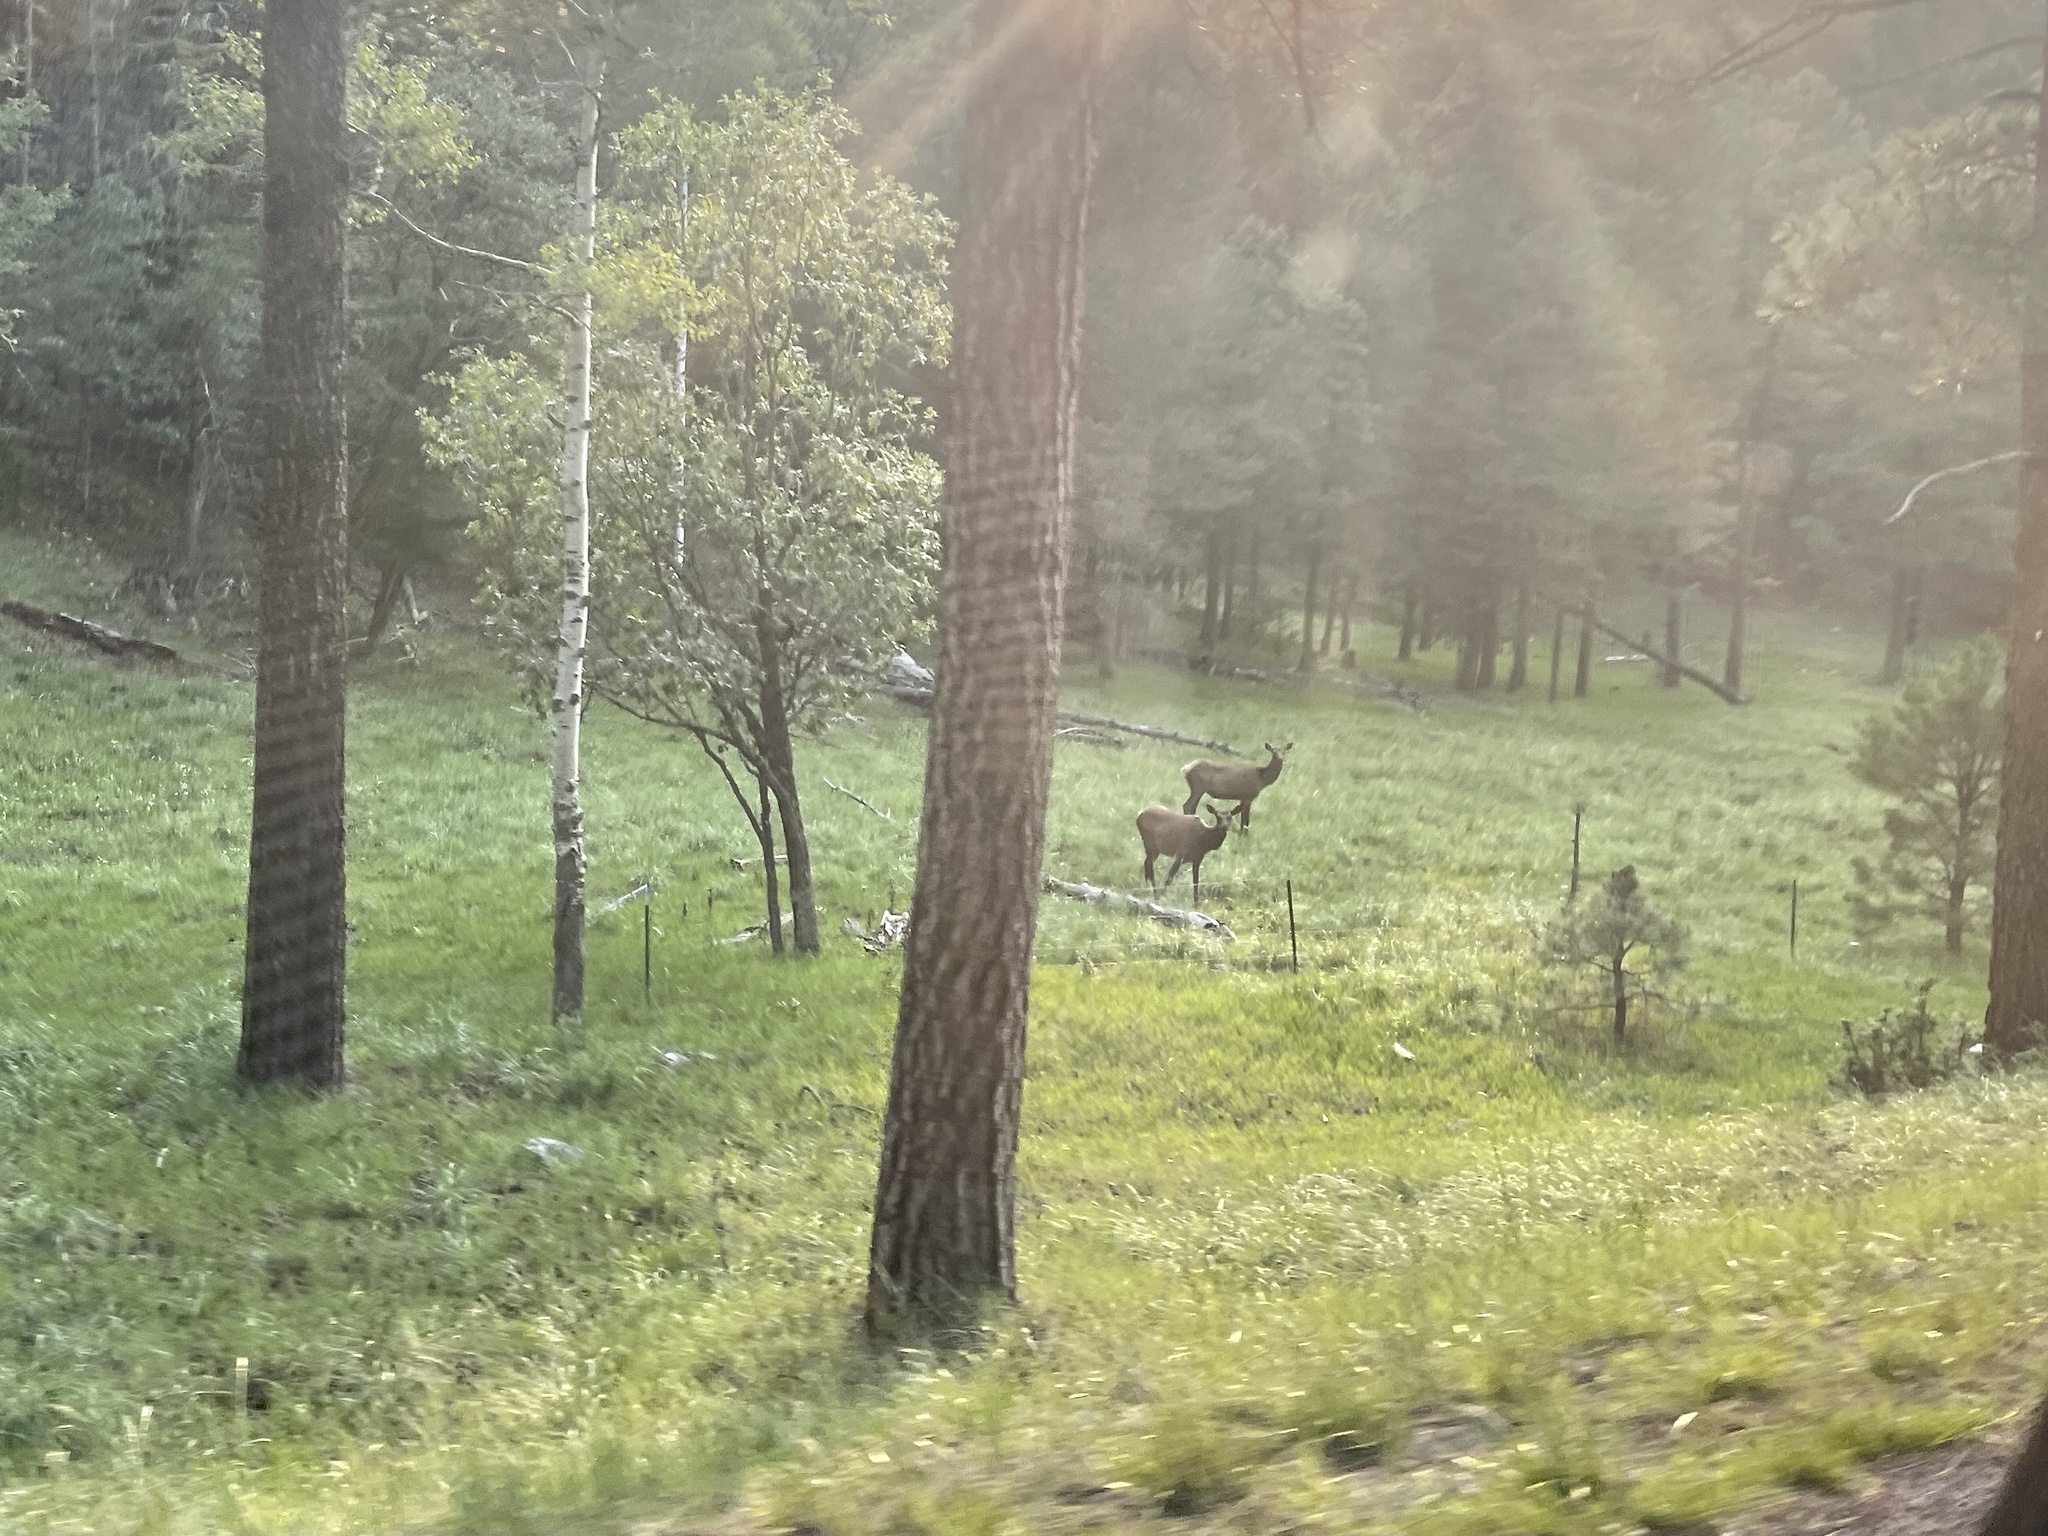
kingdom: Animalia
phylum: Chordata
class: Mammalia
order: Artiodactyla
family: Cervidae
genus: Cervus
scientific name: Cervus elaphus
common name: Red deer
